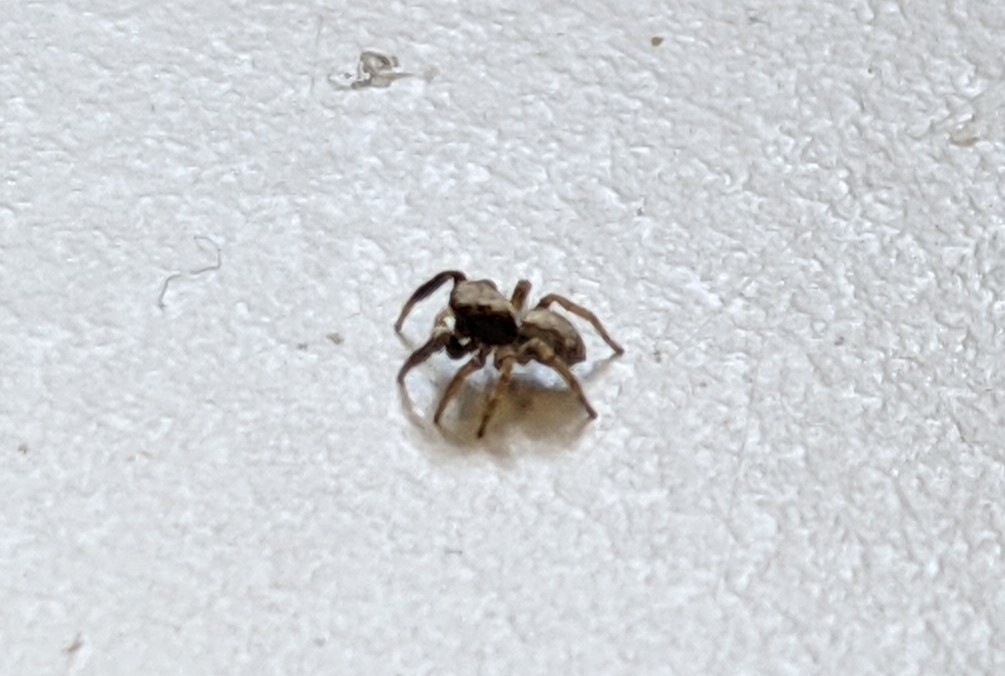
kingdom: Animalia
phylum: Arthropoda
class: Arachnida
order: Araneae
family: Salticidae
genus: Pseudeuophrys
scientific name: Pseudeuophrys lanigera
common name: Jumping spider
